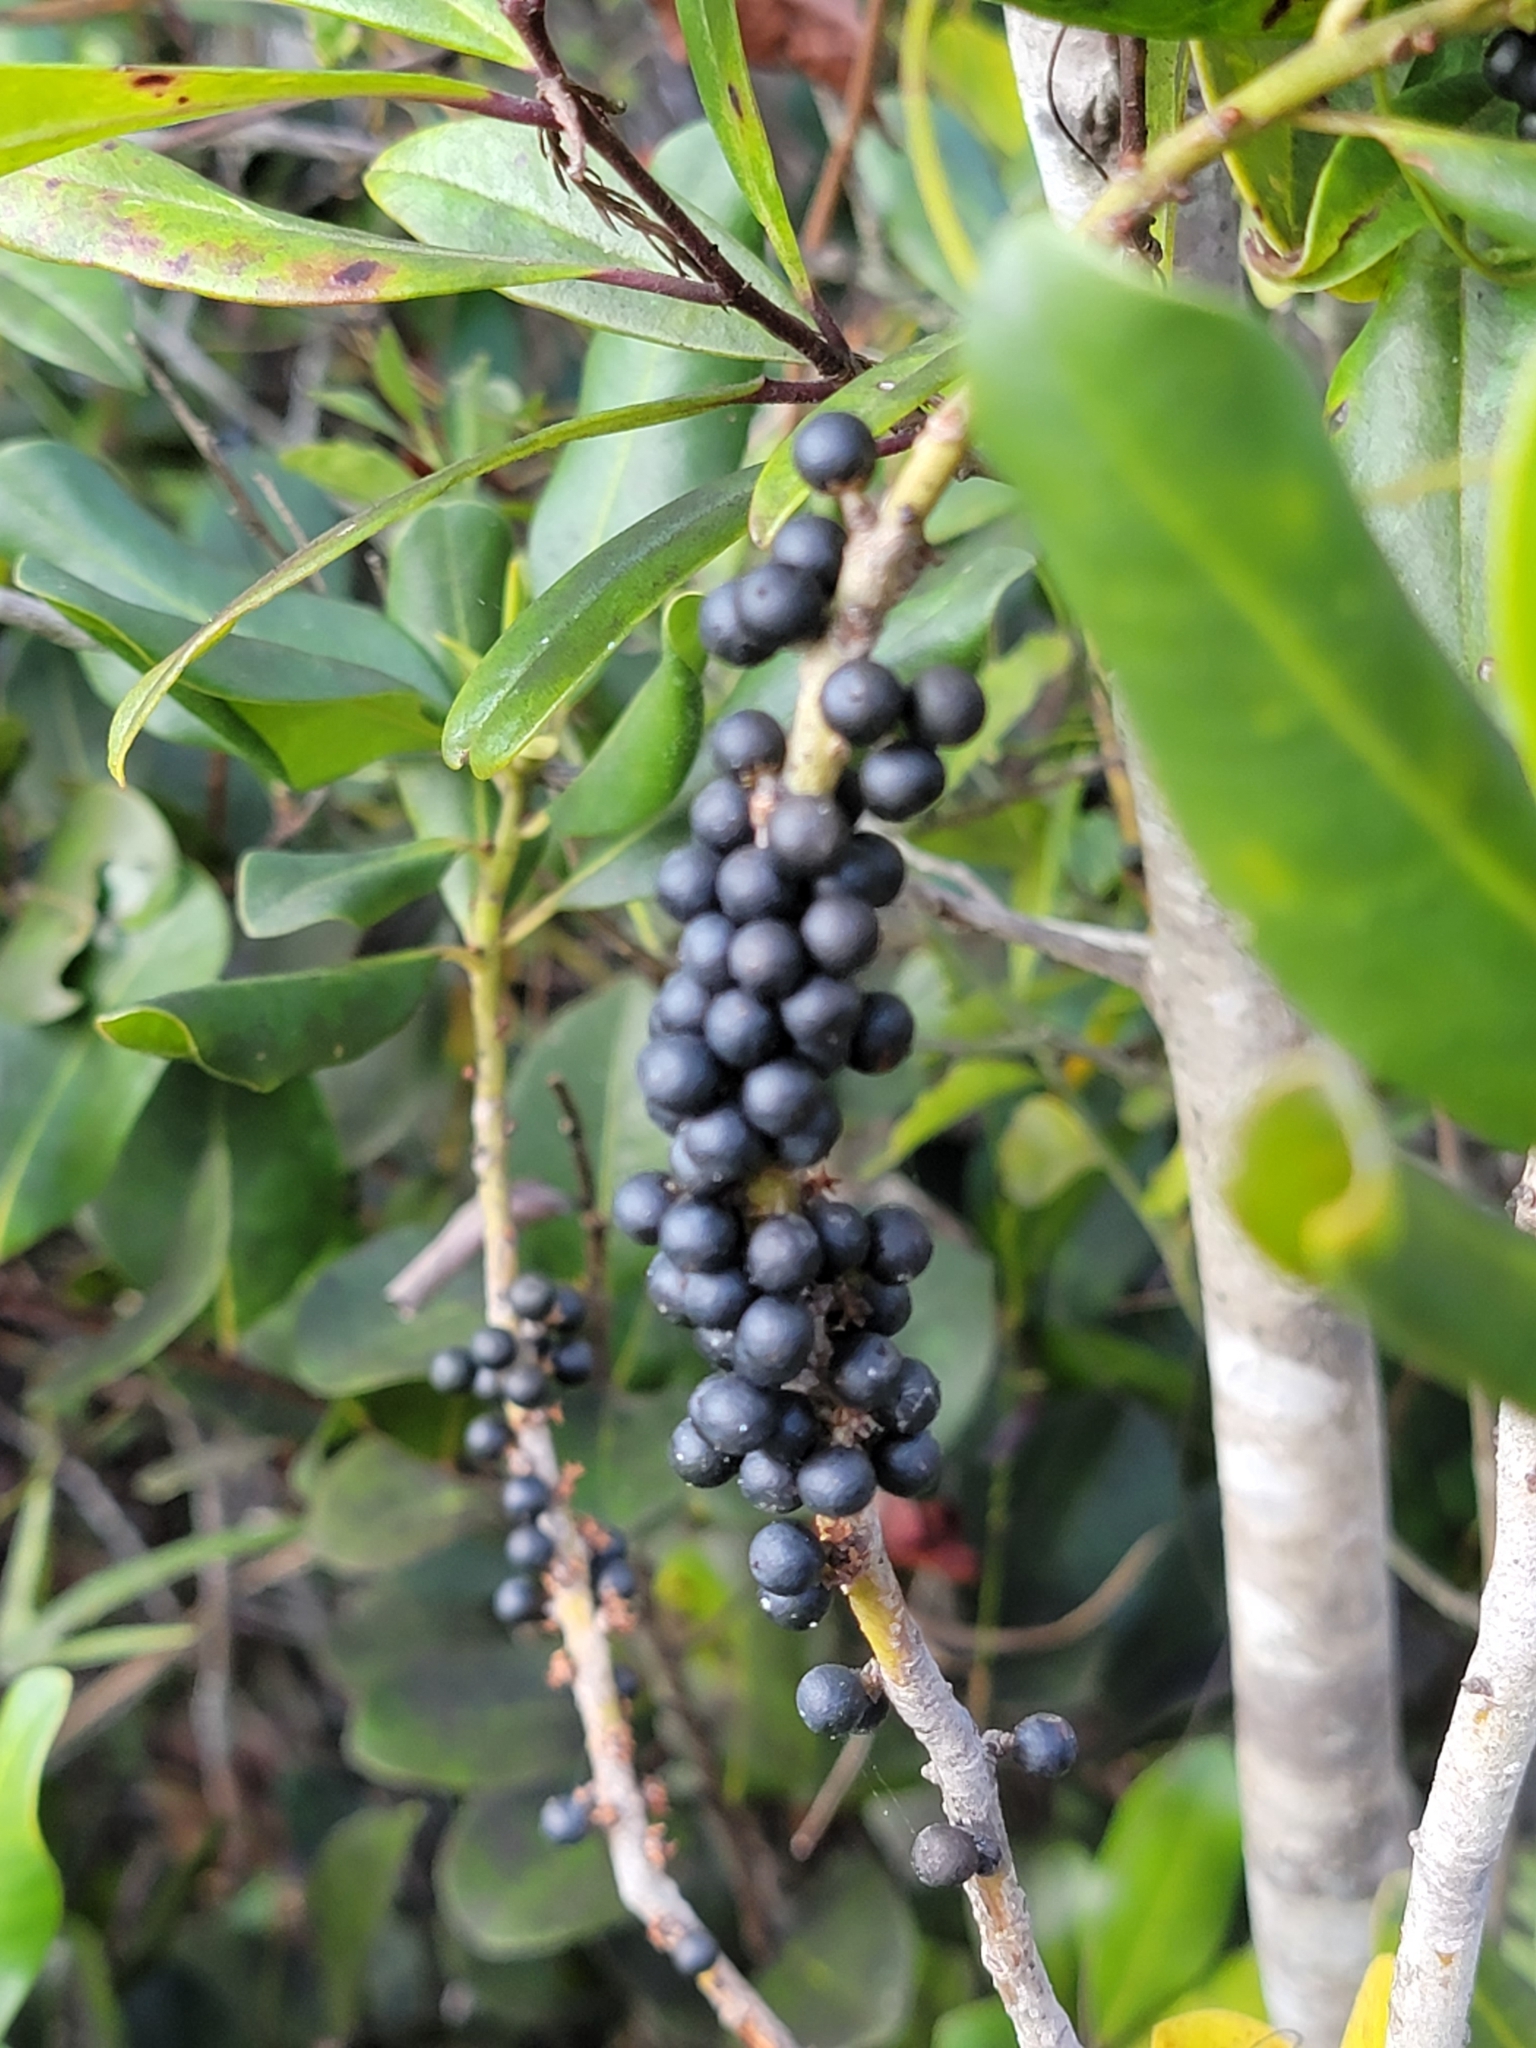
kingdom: Plantae
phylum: Tracheophyta
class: Magnoliopsida
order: Ericales
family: Primulaceae
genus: Myrsine
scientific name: Myrsine floridana
